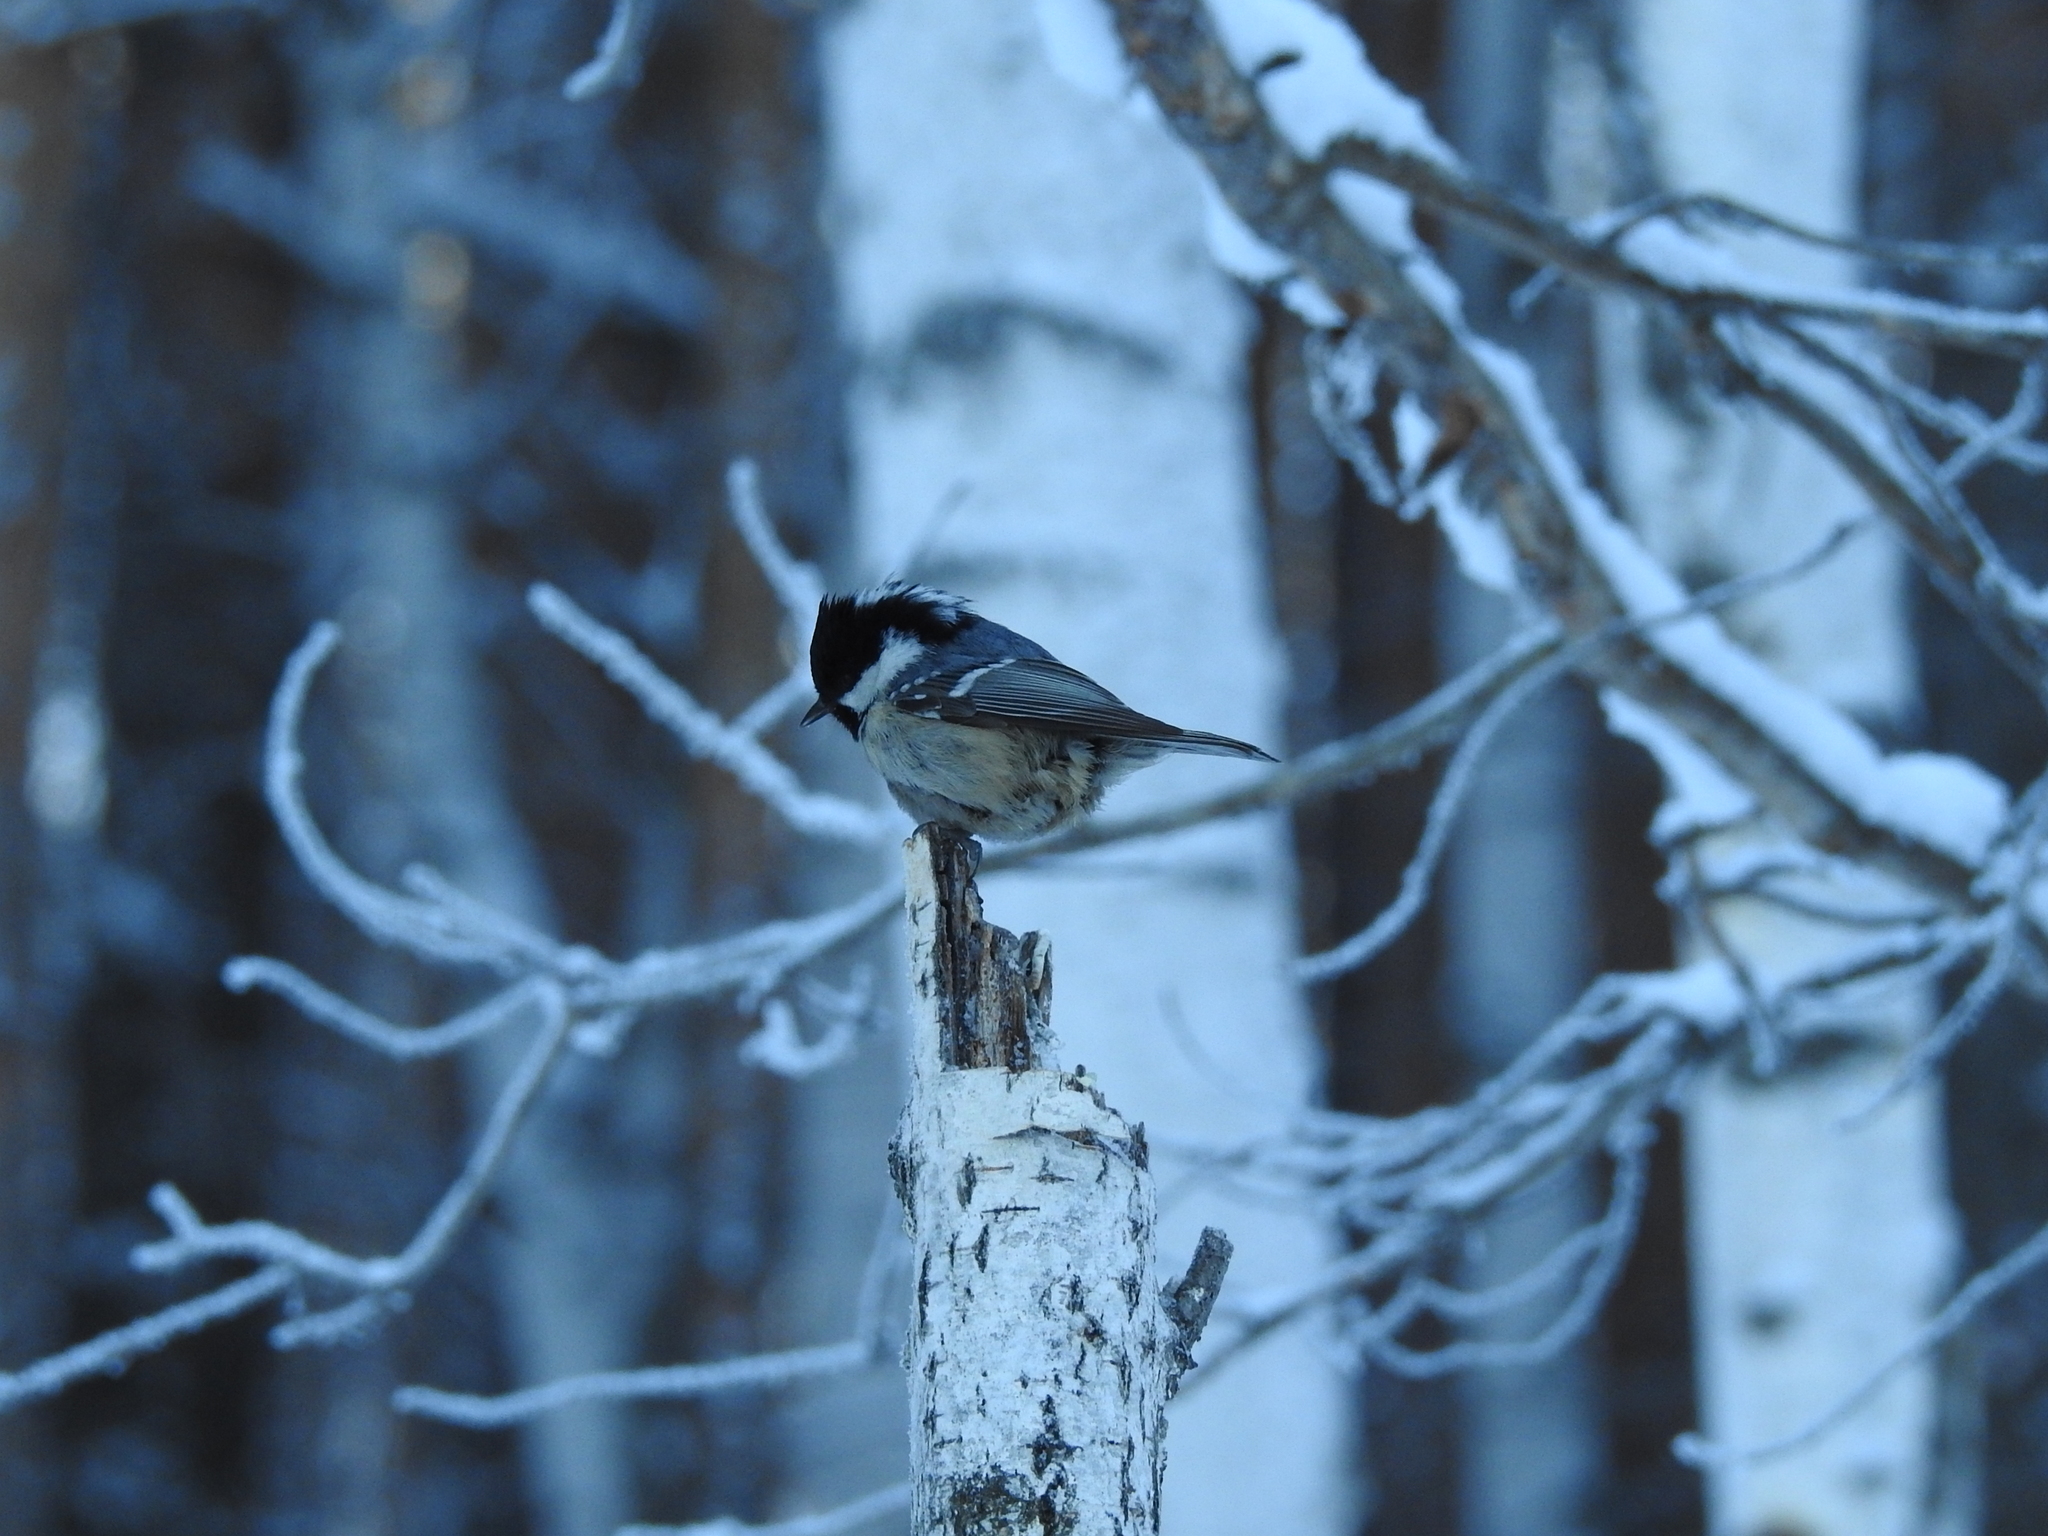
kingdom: Animalia
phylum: Chordata
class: Aves
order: Passeriformes
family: Paridae
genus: Periparus
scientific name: Periparus ater
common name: Coal tit
